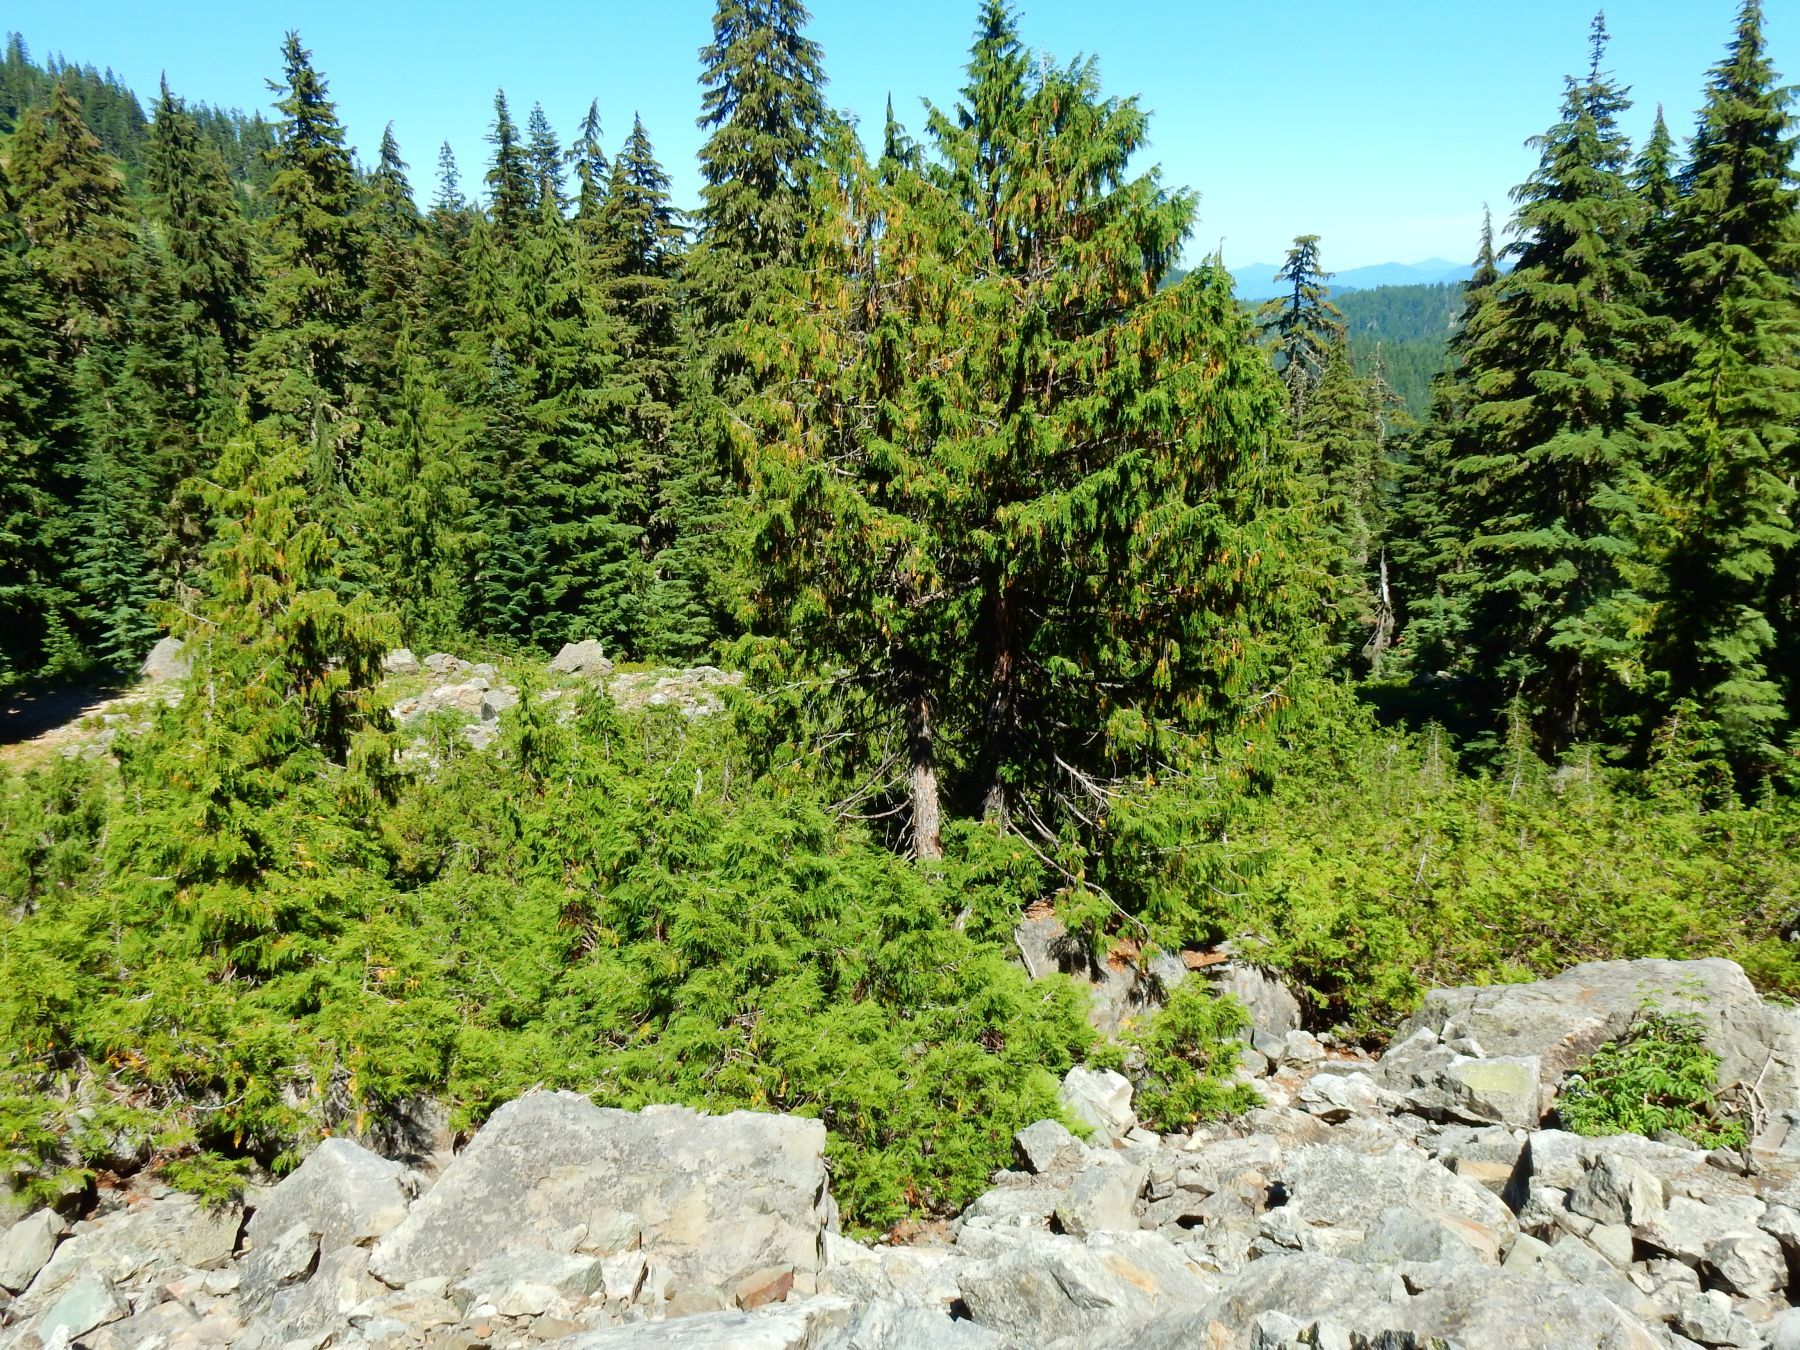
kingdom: Plantae
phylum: Tracheophyta
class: Pinopsida
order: Pinales
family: Cupressaceae
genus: Xanthocyparis
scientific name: Xanthocyparis nootkatensis
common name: Nootka cypress
